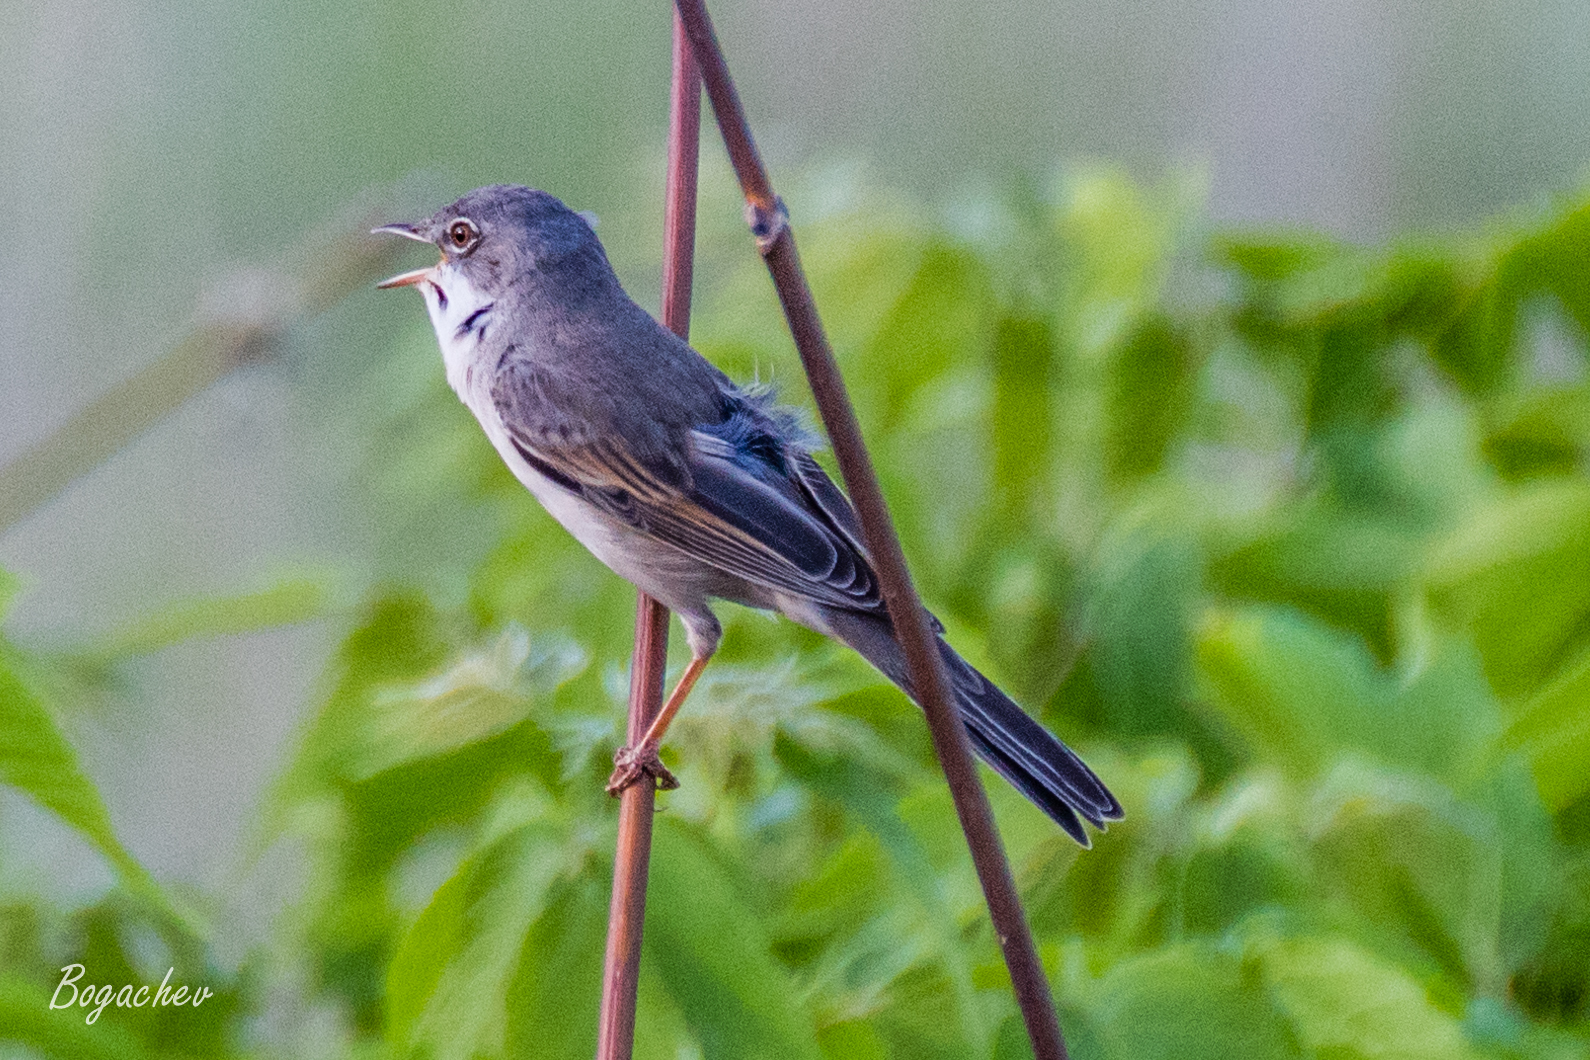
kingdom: Animalia
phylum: Chordata
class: Aves
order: Passeriformes
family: Sylviidae
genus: Sylvia
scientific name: Sylvia communis
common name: Common whitethroat
